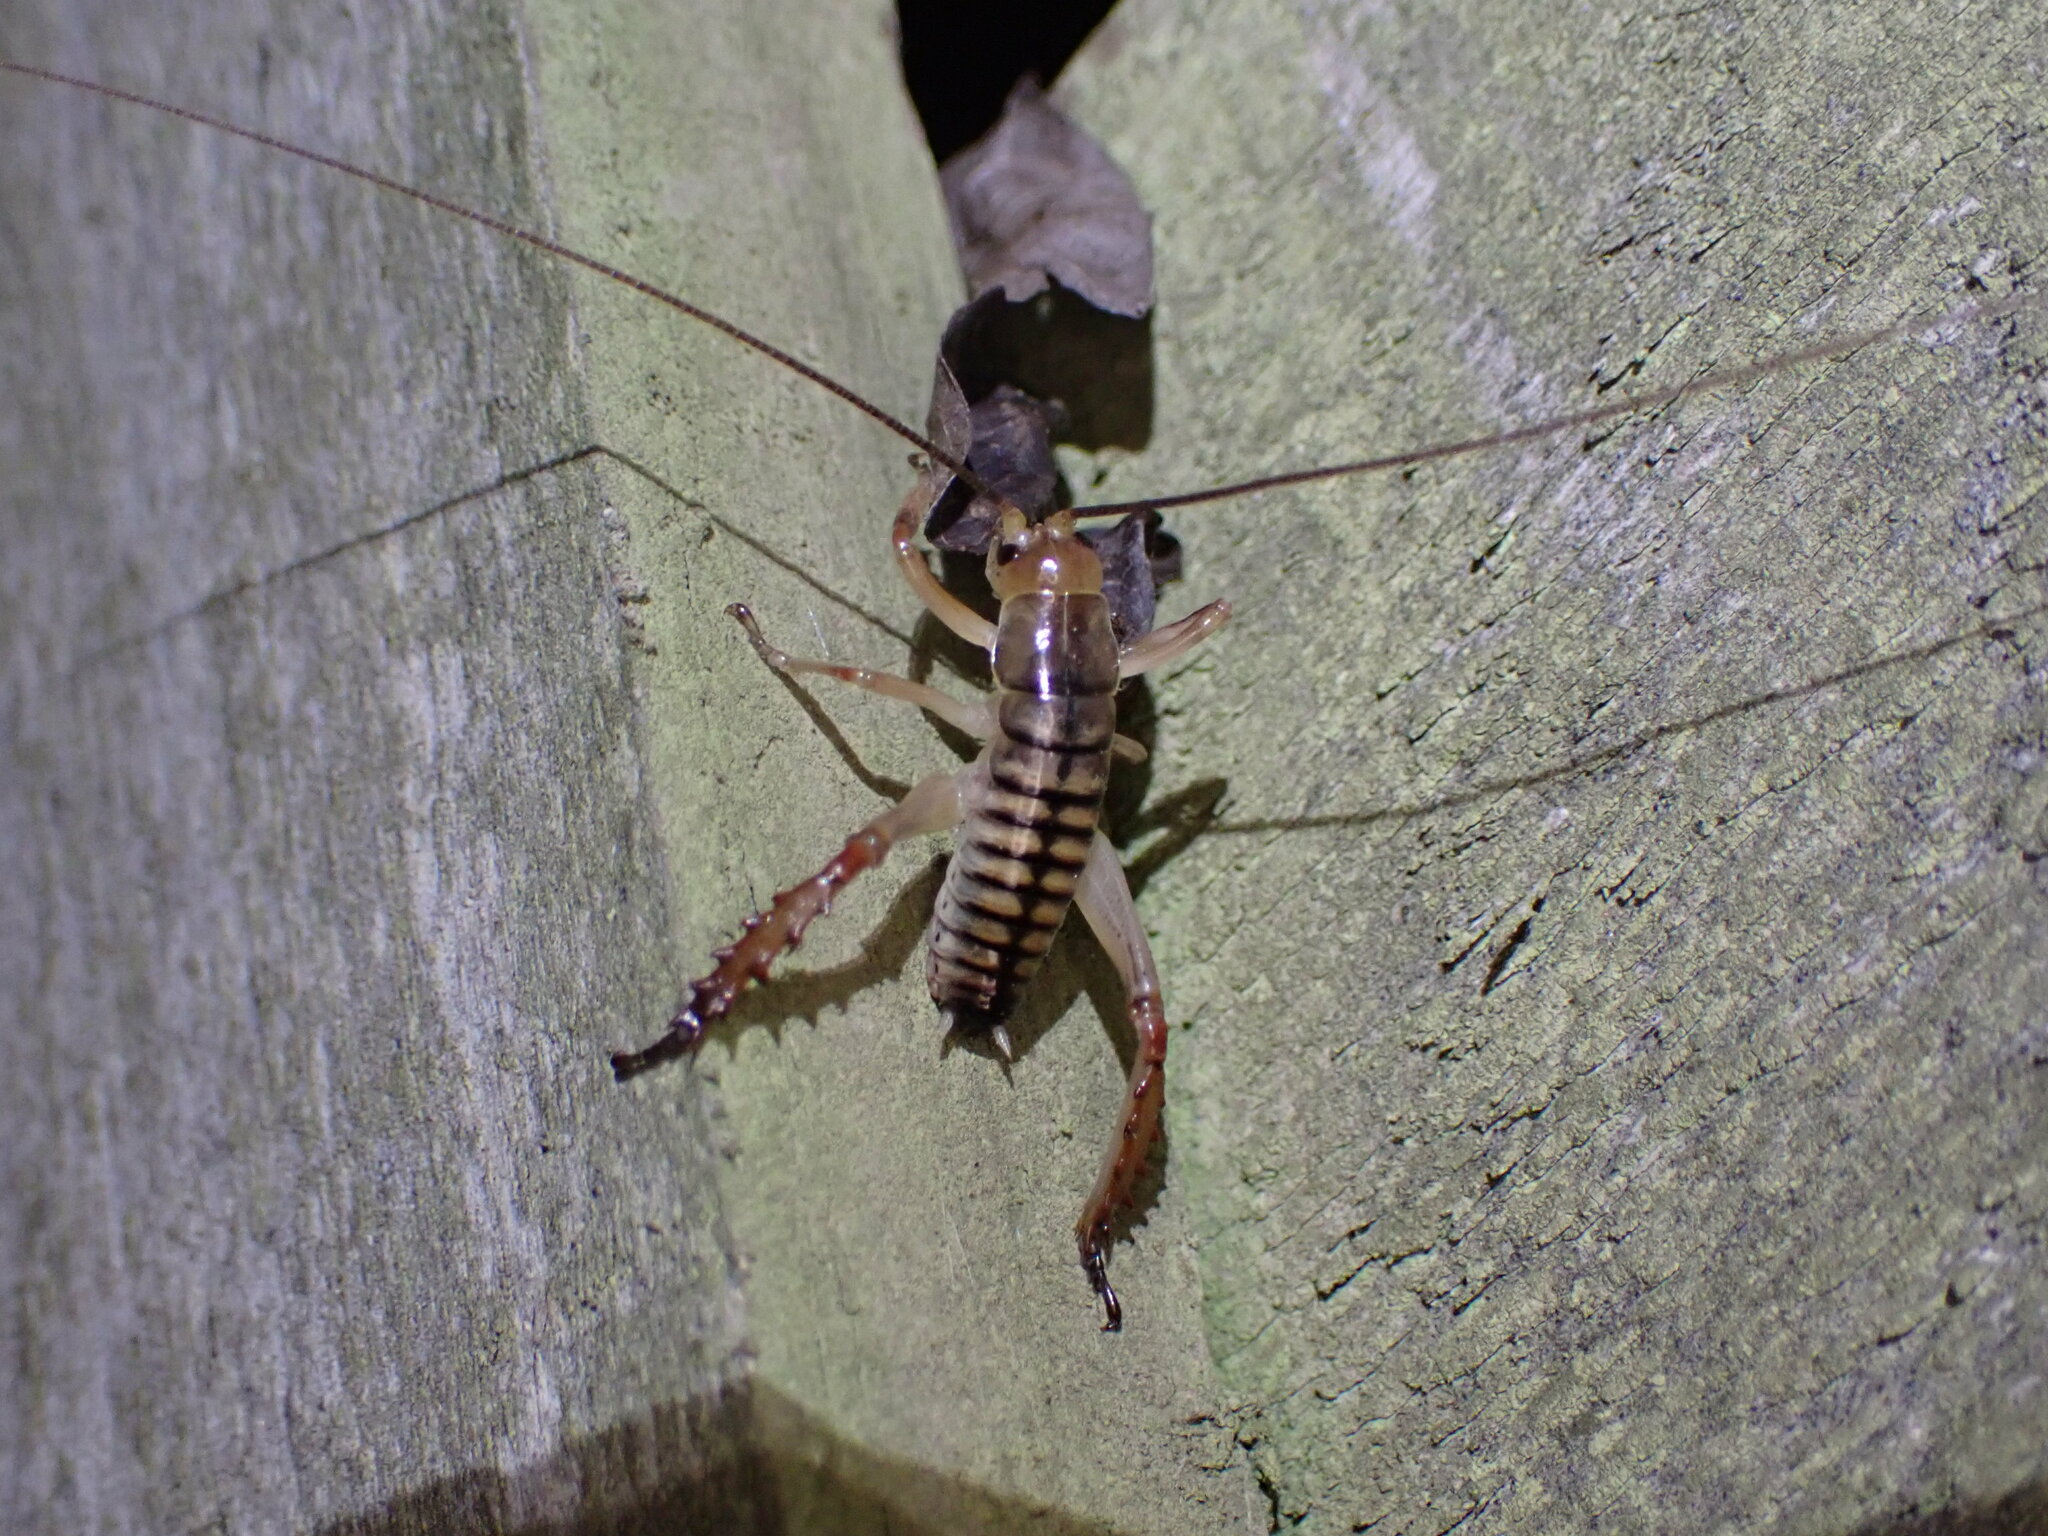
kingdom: Animalia
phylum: Arthropoda
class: Insecta
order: Orthoptera
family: Anostostomatidae
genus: Hemideina
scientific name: Hemideina crassidens
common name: Wellington tree weta
